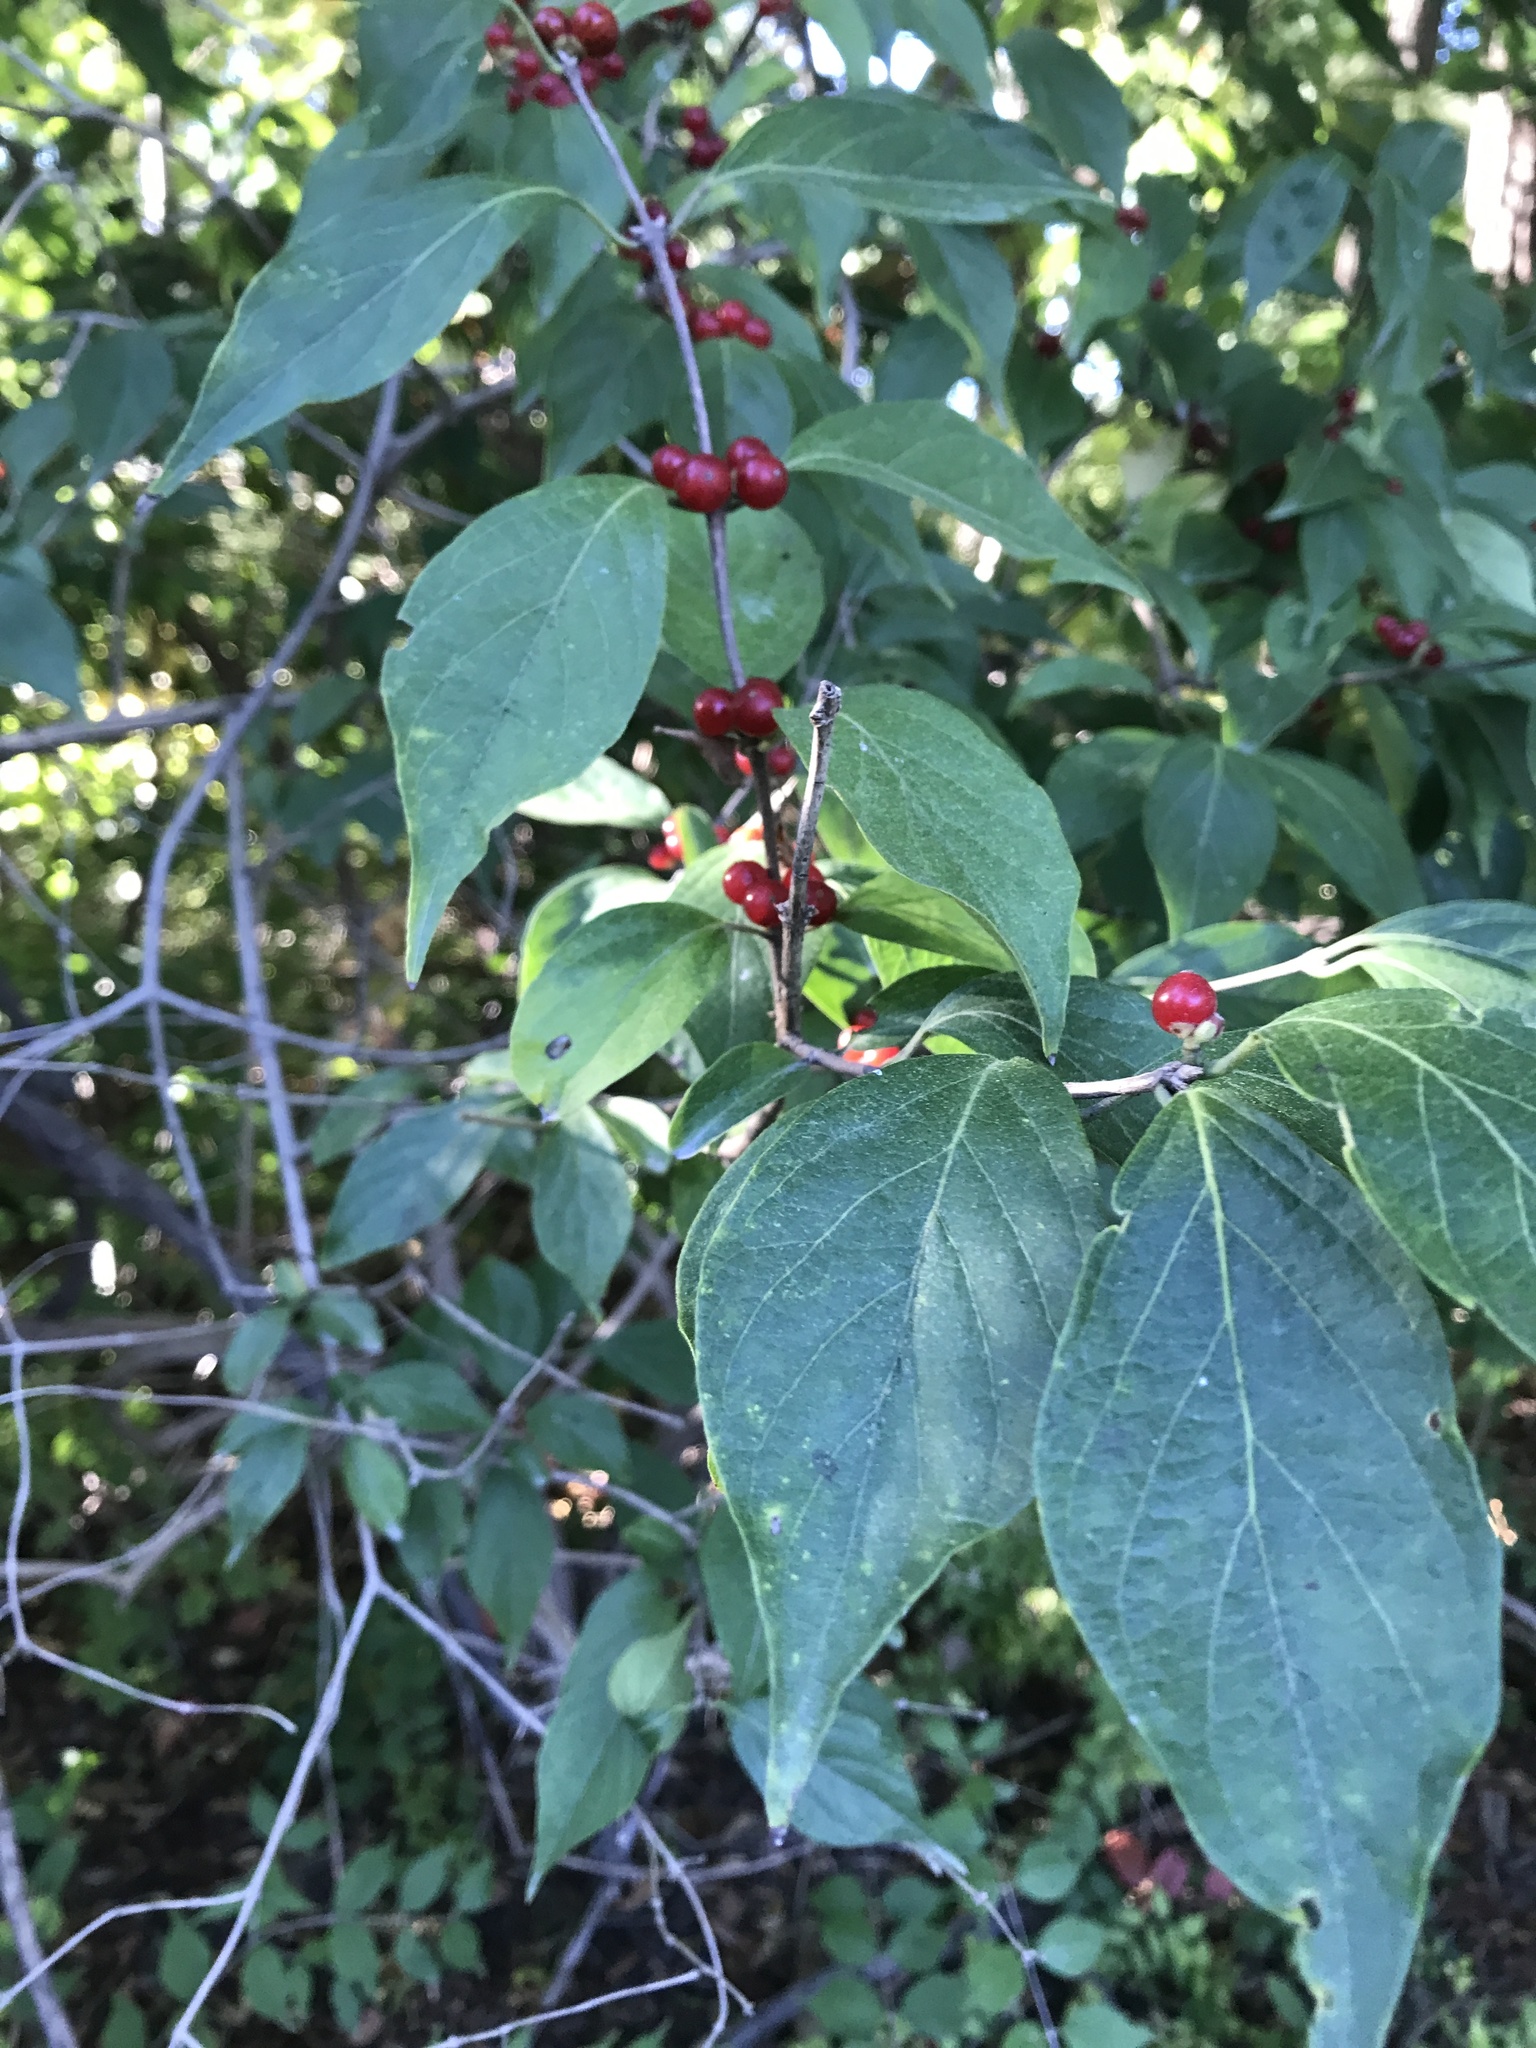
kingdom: Plantae
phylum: Tracheophyta
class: Magnoliopsida
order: Dipsacales
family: Caprifoliaceae
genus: Lonicera
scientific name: Lonicera maackii
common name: Amur honeysuckle
